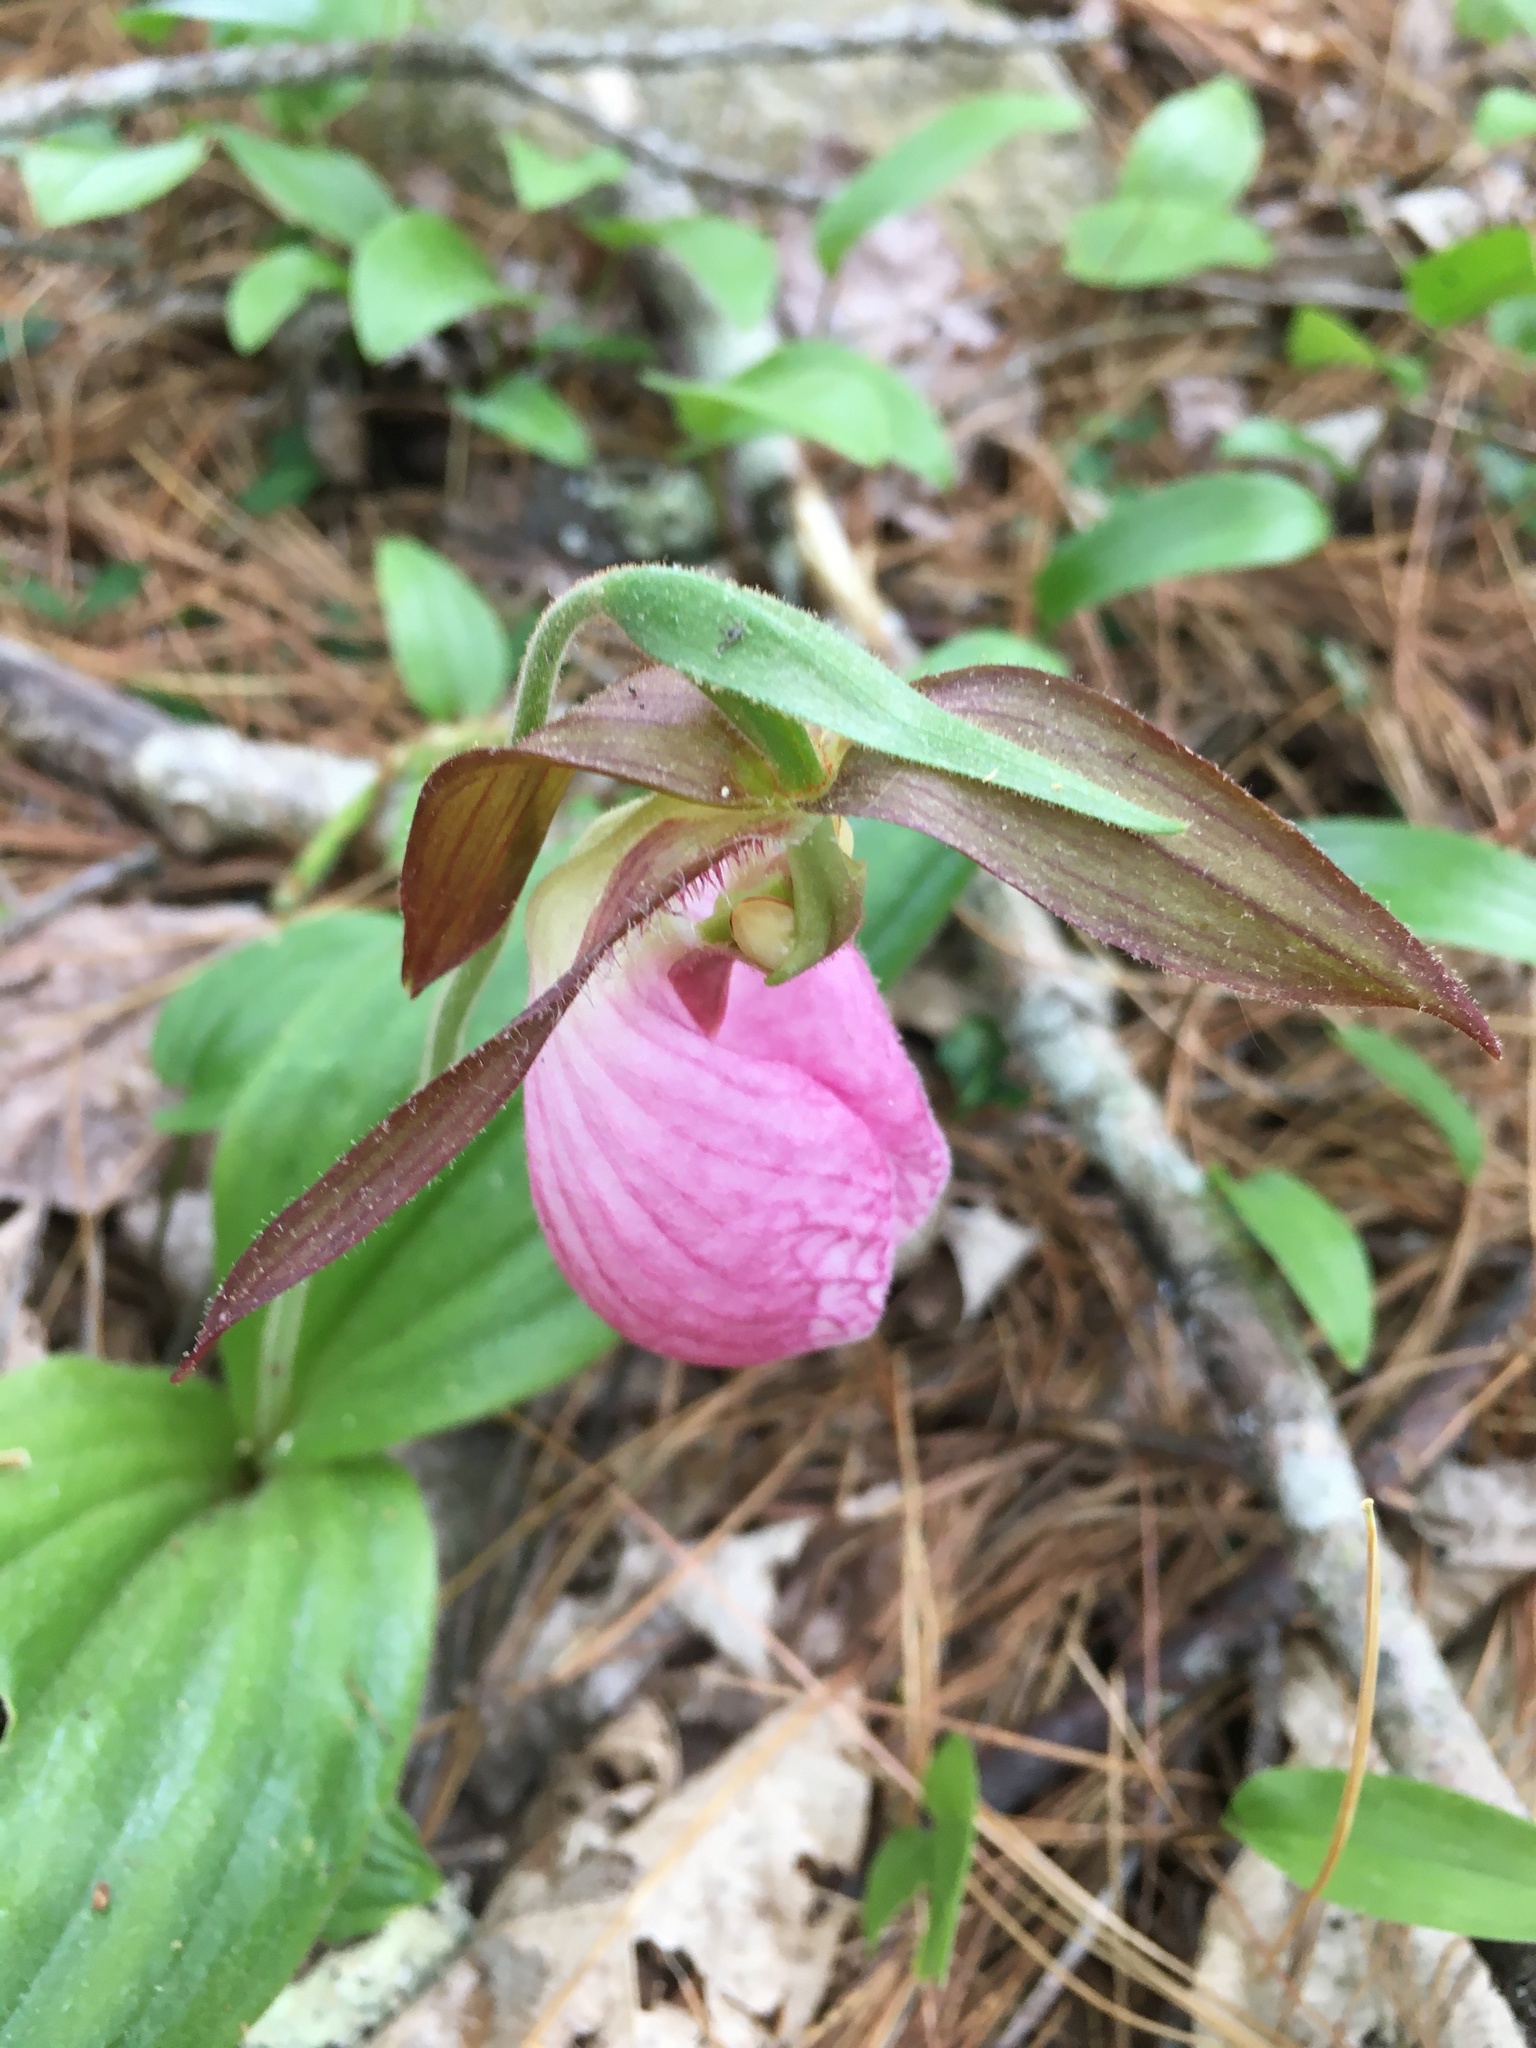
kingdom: Plantae
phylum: Tracheophyta
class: Liliopsida
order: Asparagales
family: Orchidaceae
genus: Cypripedium
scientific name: Cypripedium acaule
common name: Pink lady's-slipper
